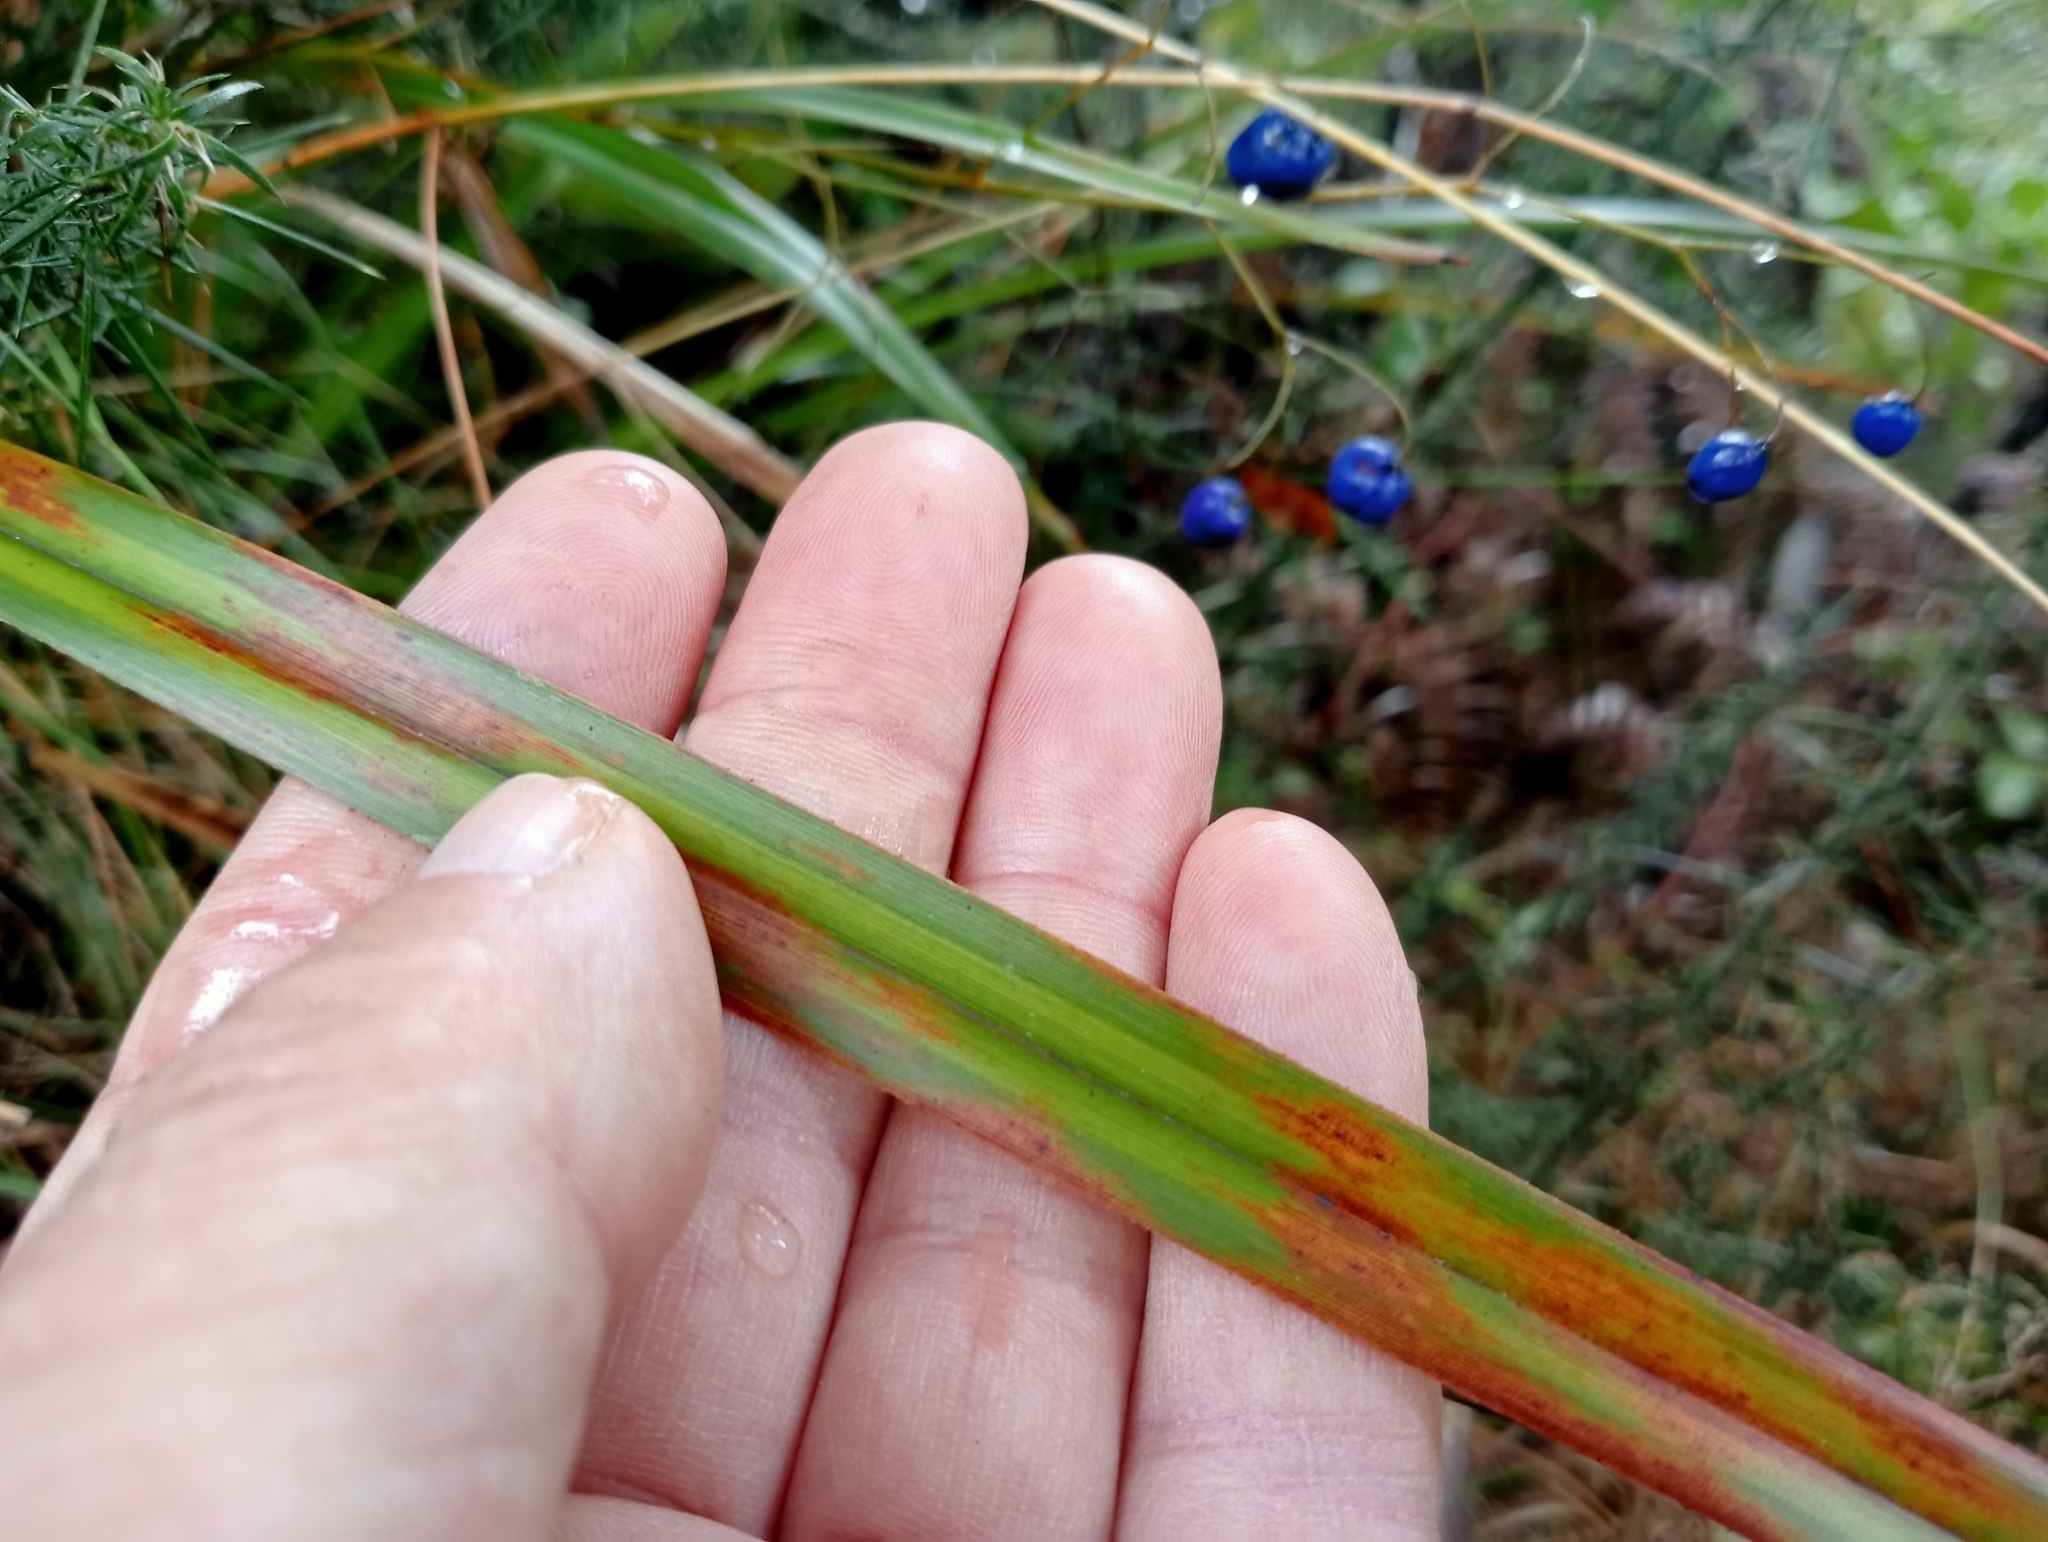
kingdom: Plantae
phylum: Tracheophyta
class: Liliopsida
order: Asparagales
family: Asphodelaceae
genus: Dianella
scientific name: Dianella nigra
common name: New zealand-blueberry
